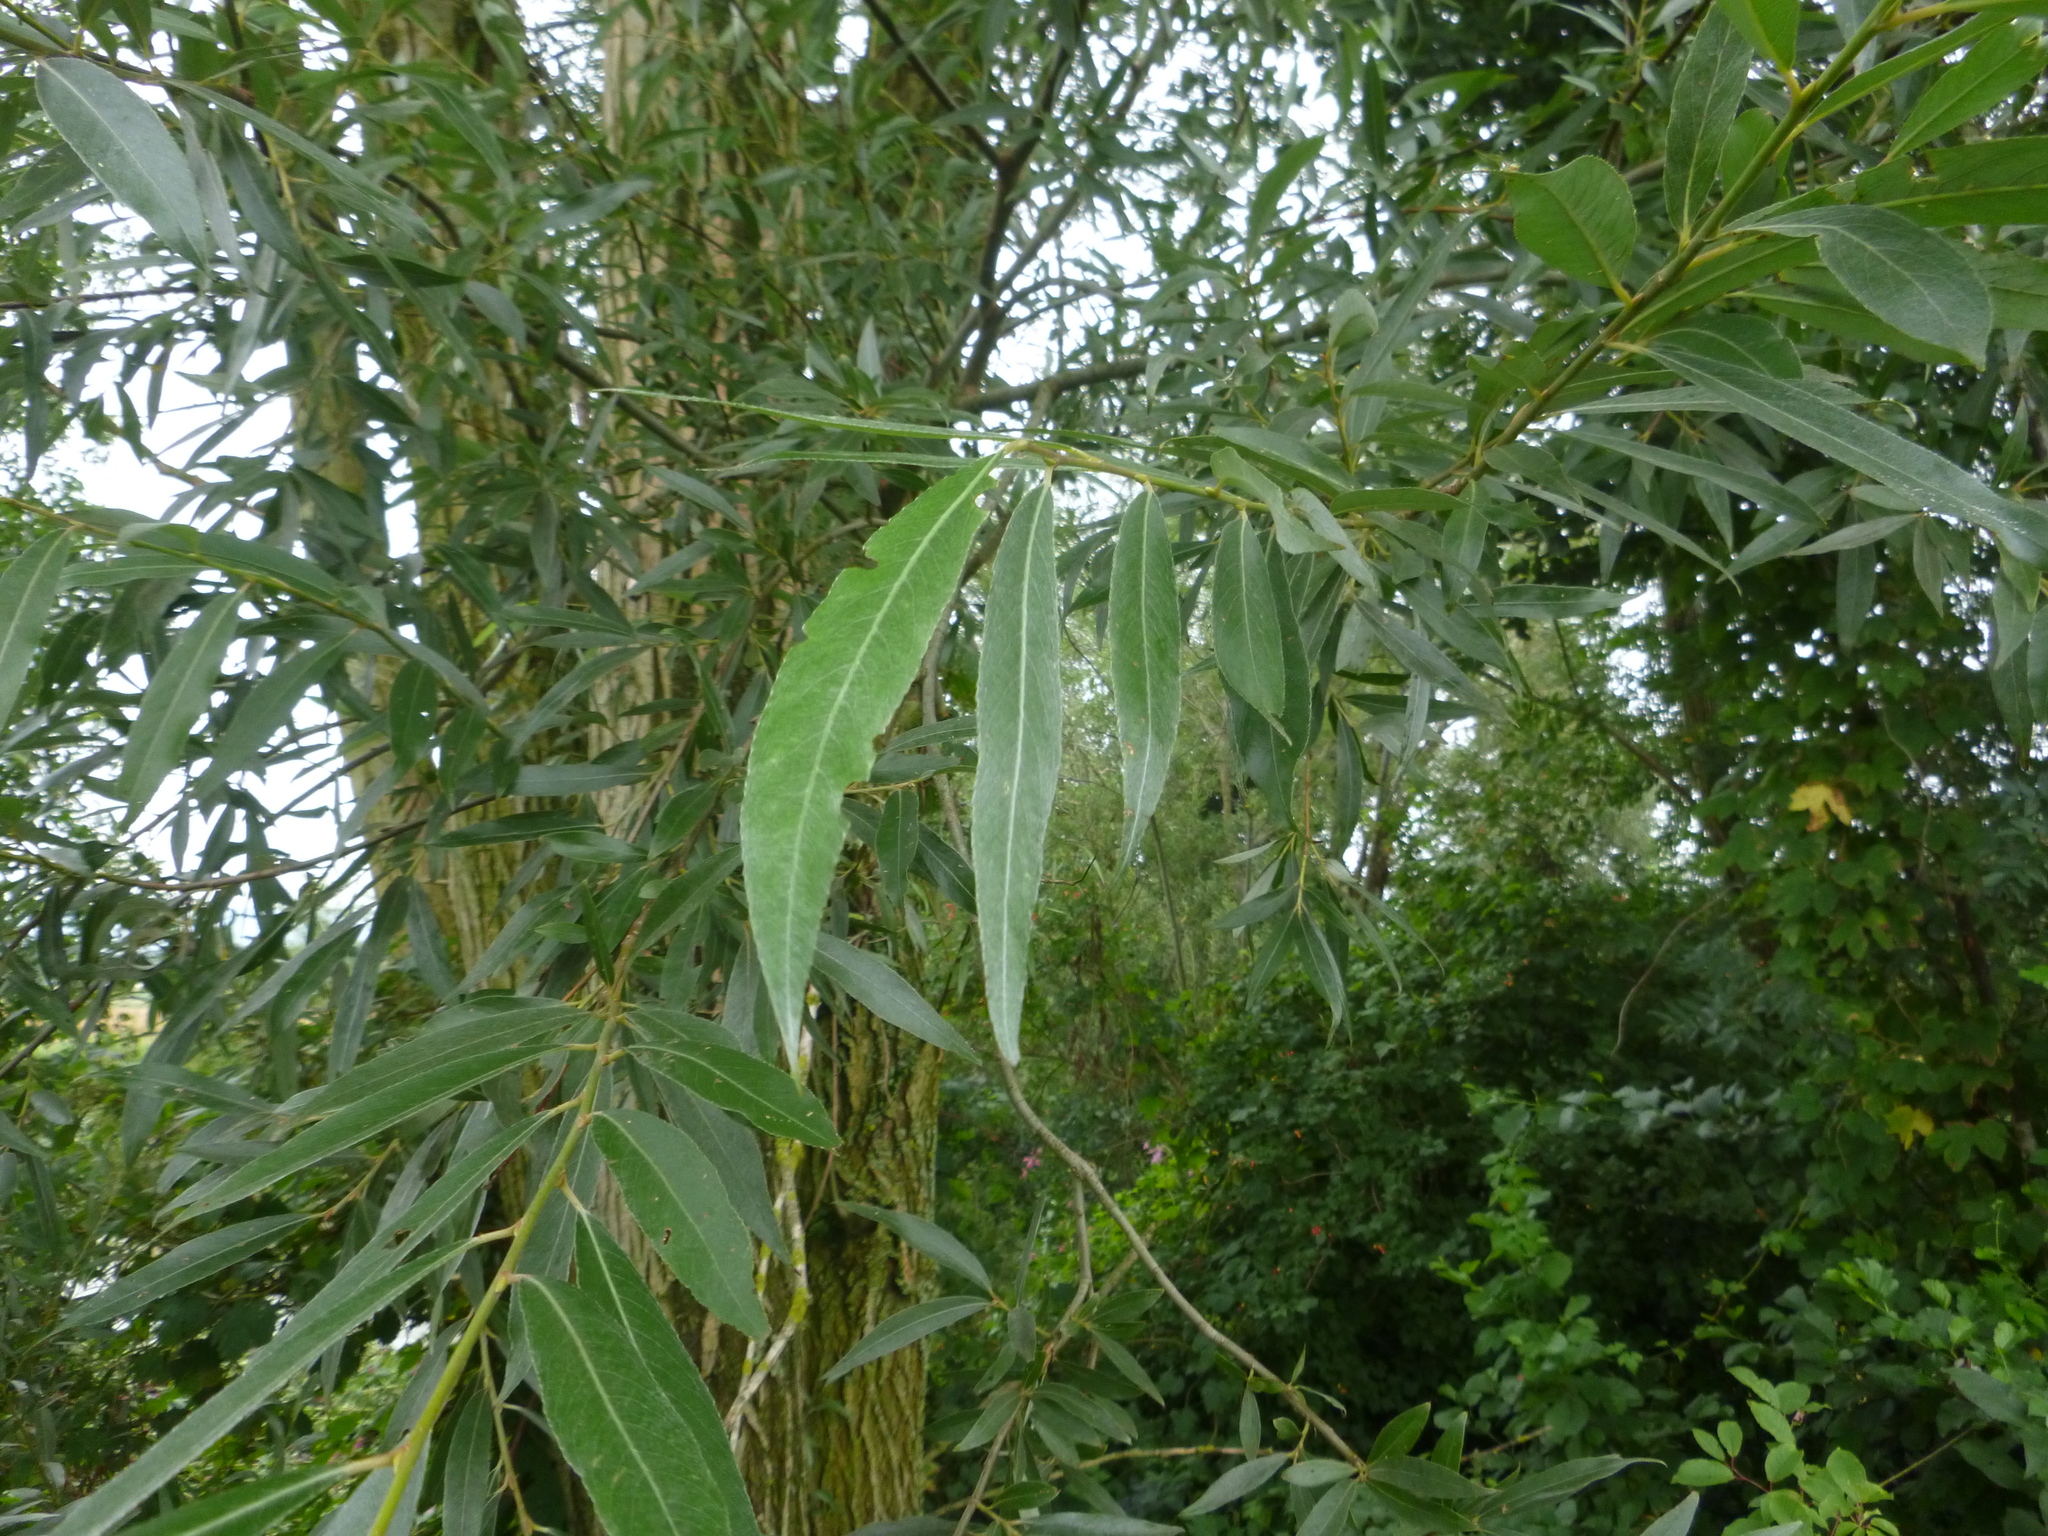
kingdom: Plantae
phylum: Tracheophyta
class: Magnoliopsida
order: Malpighiales
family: Salicaceae
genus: Salix
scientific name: Salix alba
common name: White willow
